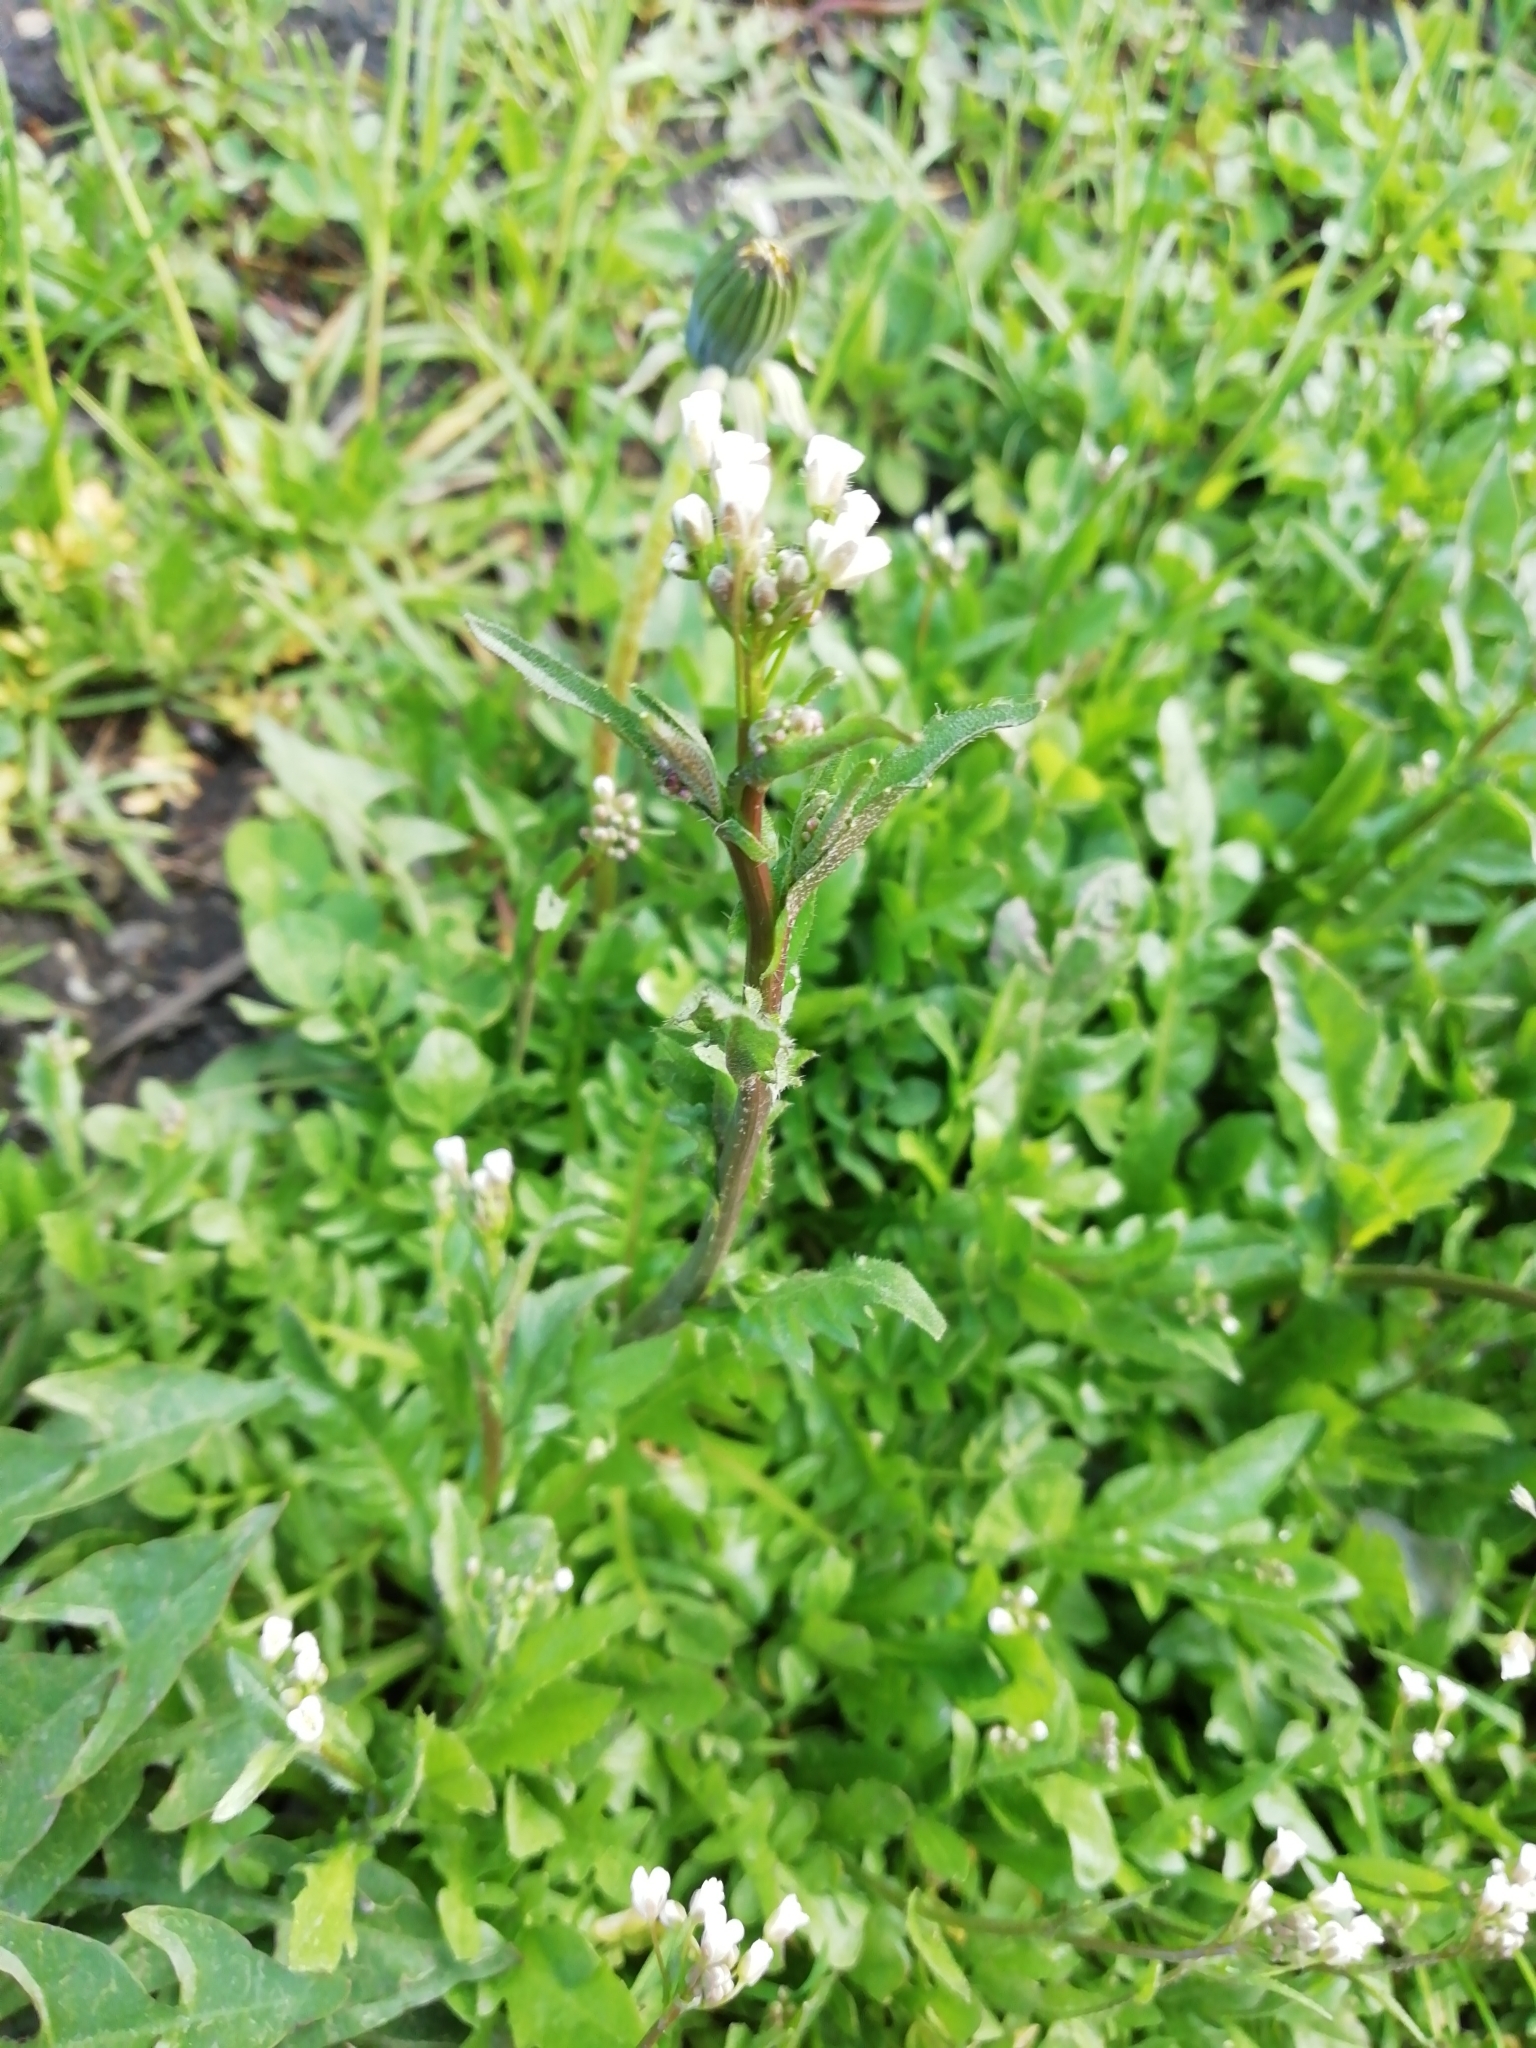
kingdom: Plantae
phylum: Tracheophyta
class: Magnoliopsida
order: Brassicales
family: Brassicaceae
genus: Capsella
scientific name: Capsella bursa-pastoris
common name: Shepherd's purse
